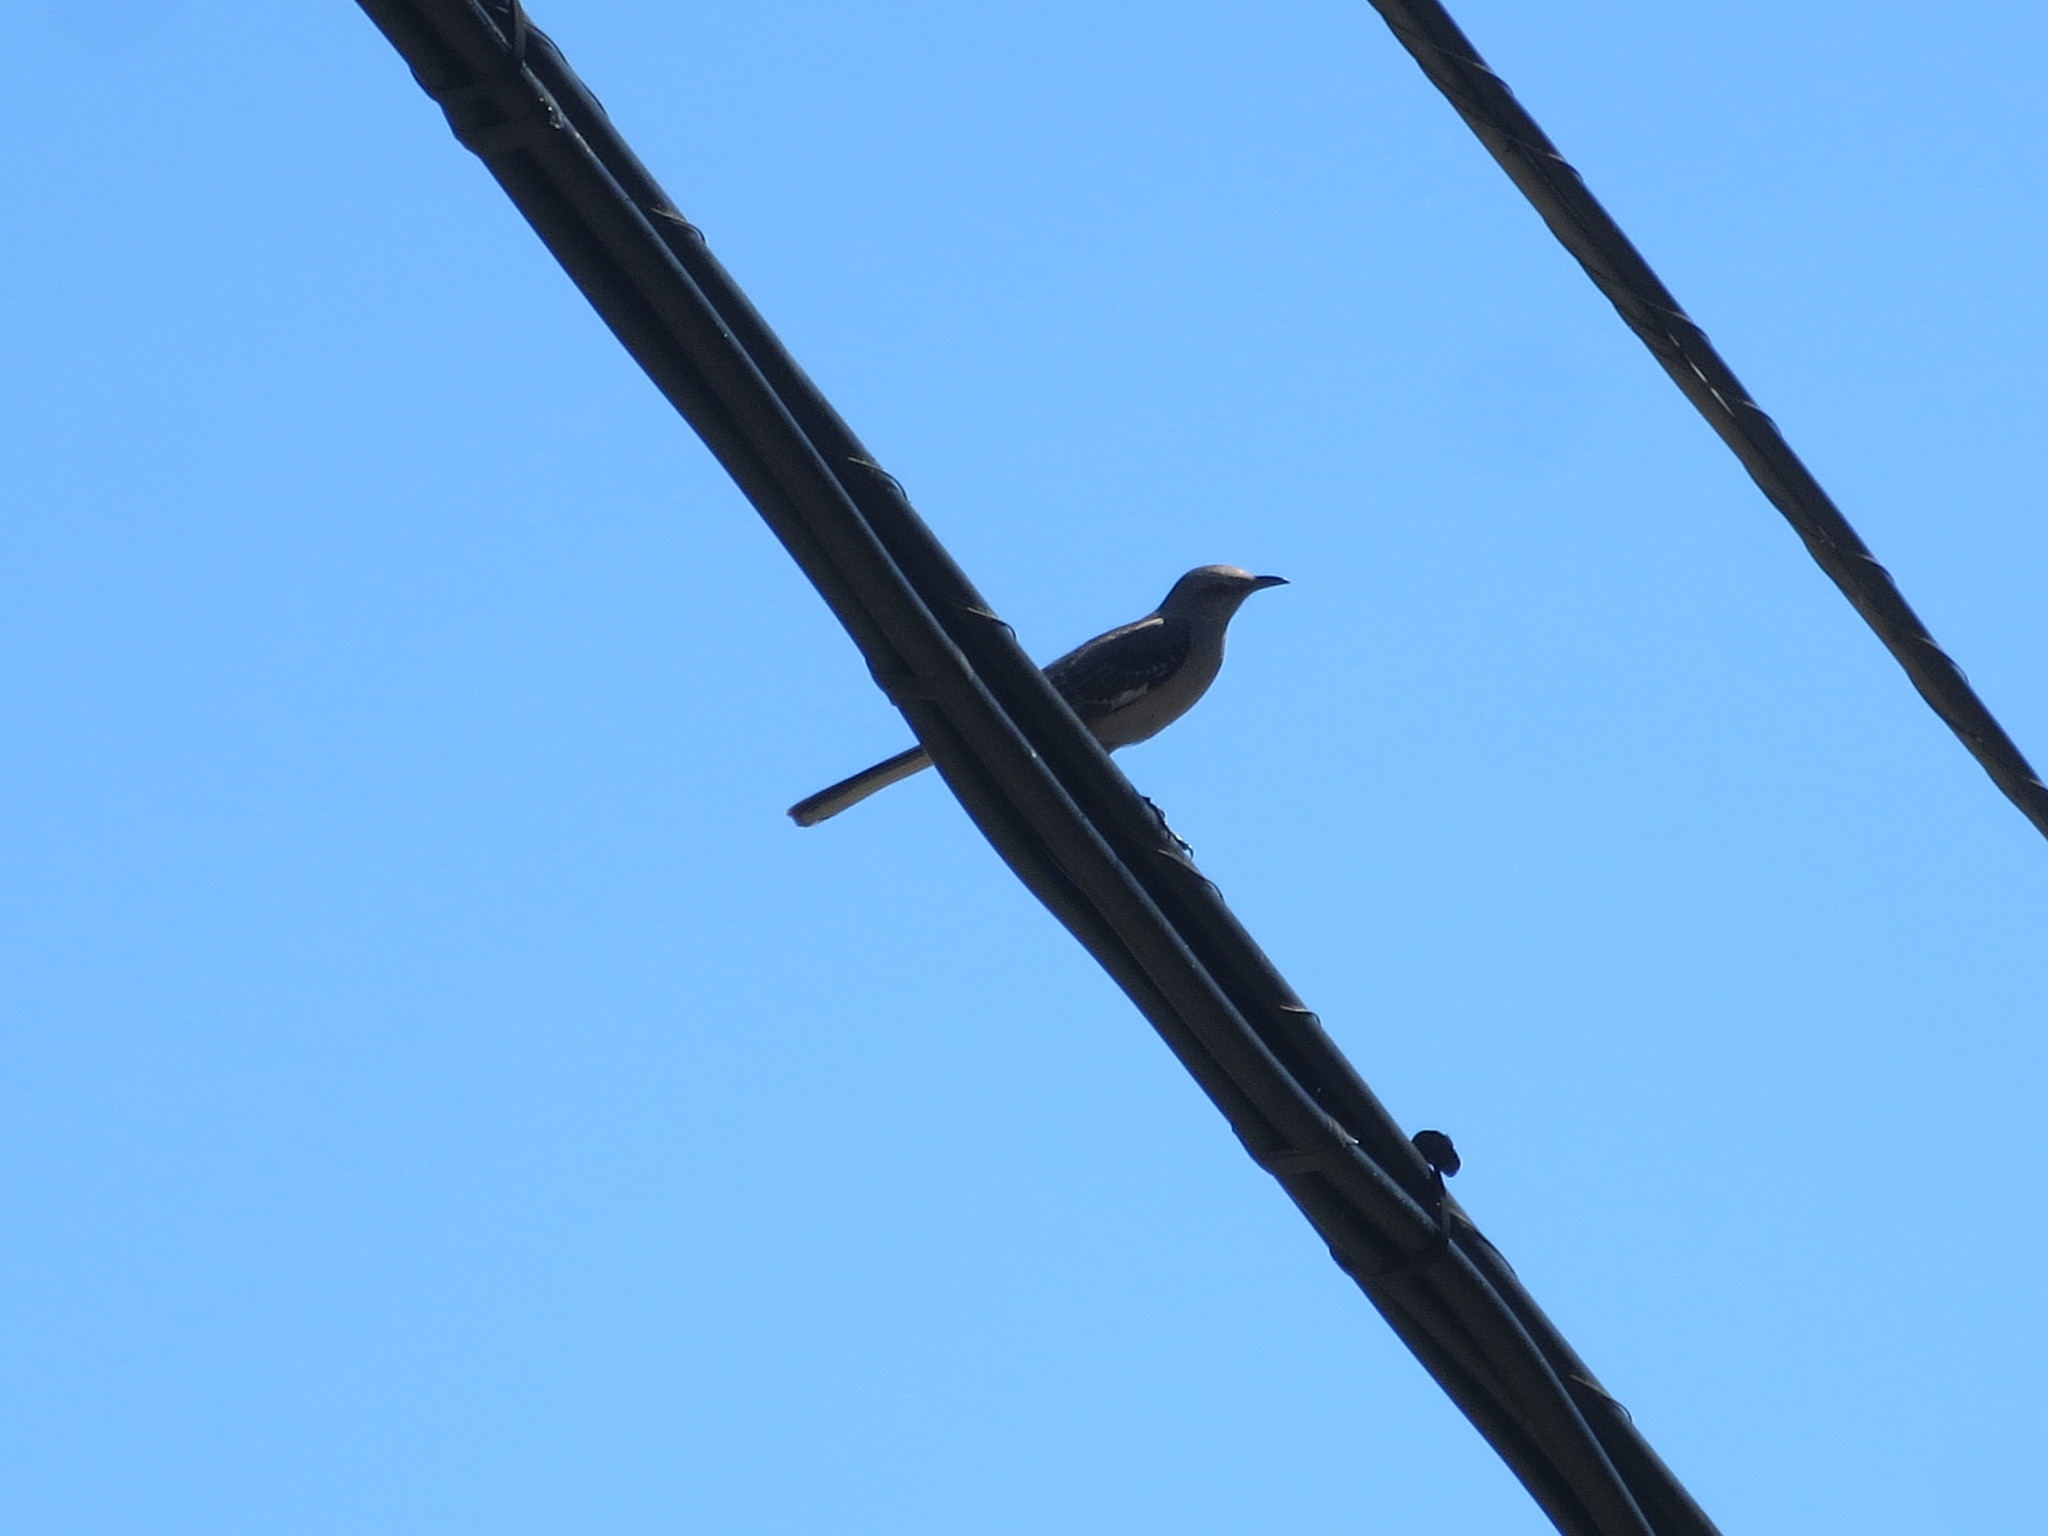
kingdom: Animalia
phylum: Chordata
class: Aves
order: Passeriformes
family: Mimidae
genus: Mimus
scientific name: Mimus polyglottos
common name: Northern mockingbird
